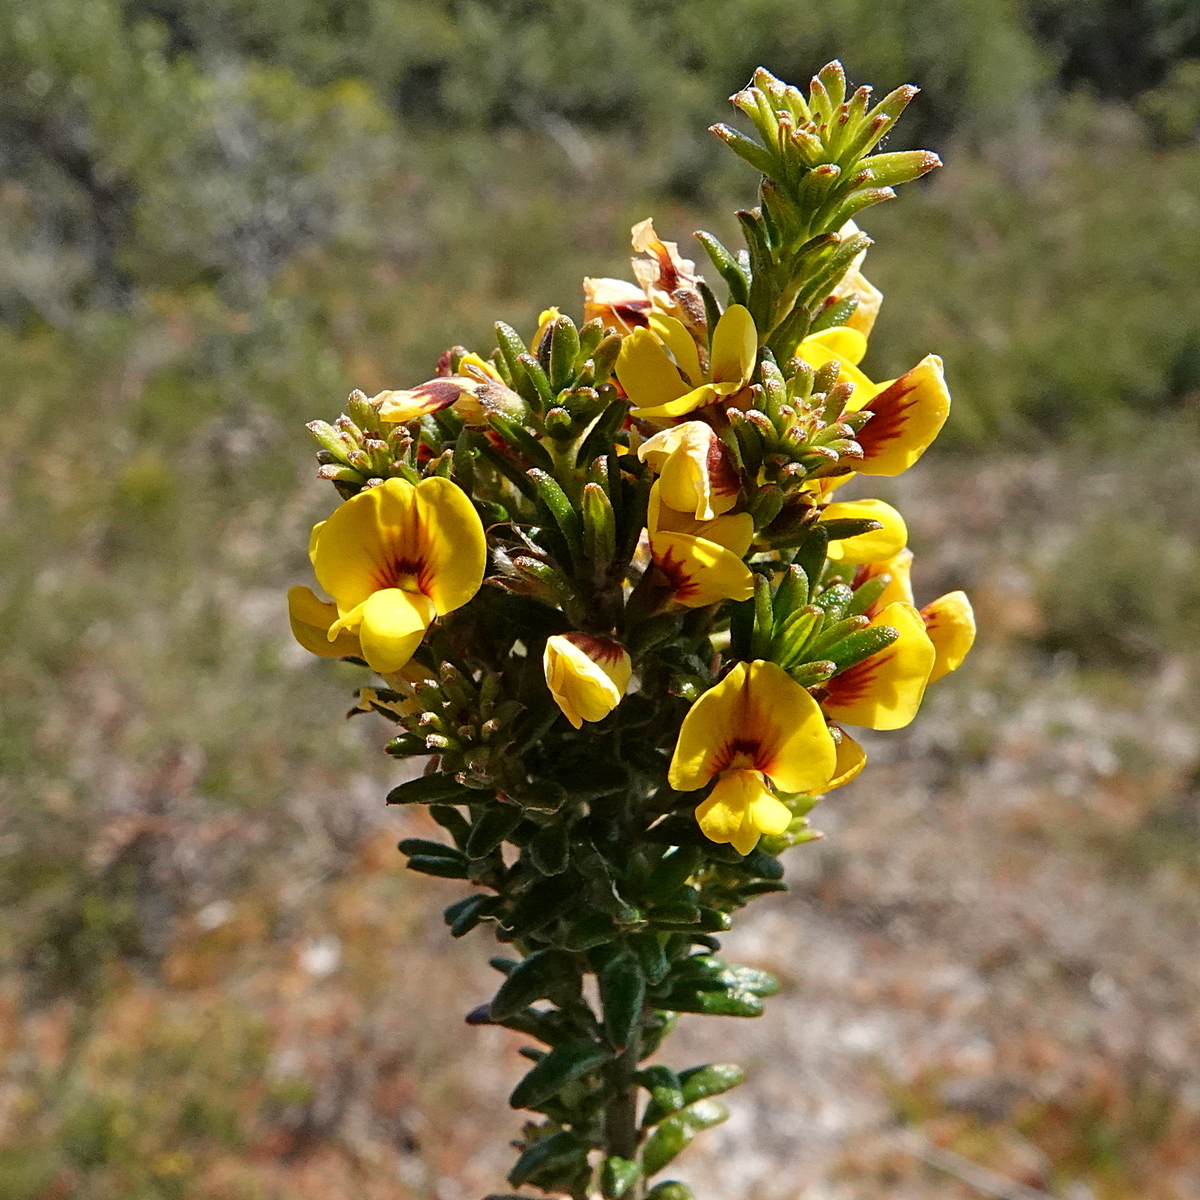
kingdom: Plantae
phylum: Tracheophyta
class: Magnoliopsida
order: Fabales
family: Fabaceae
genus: Aotus
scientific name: Aotus ericoides
